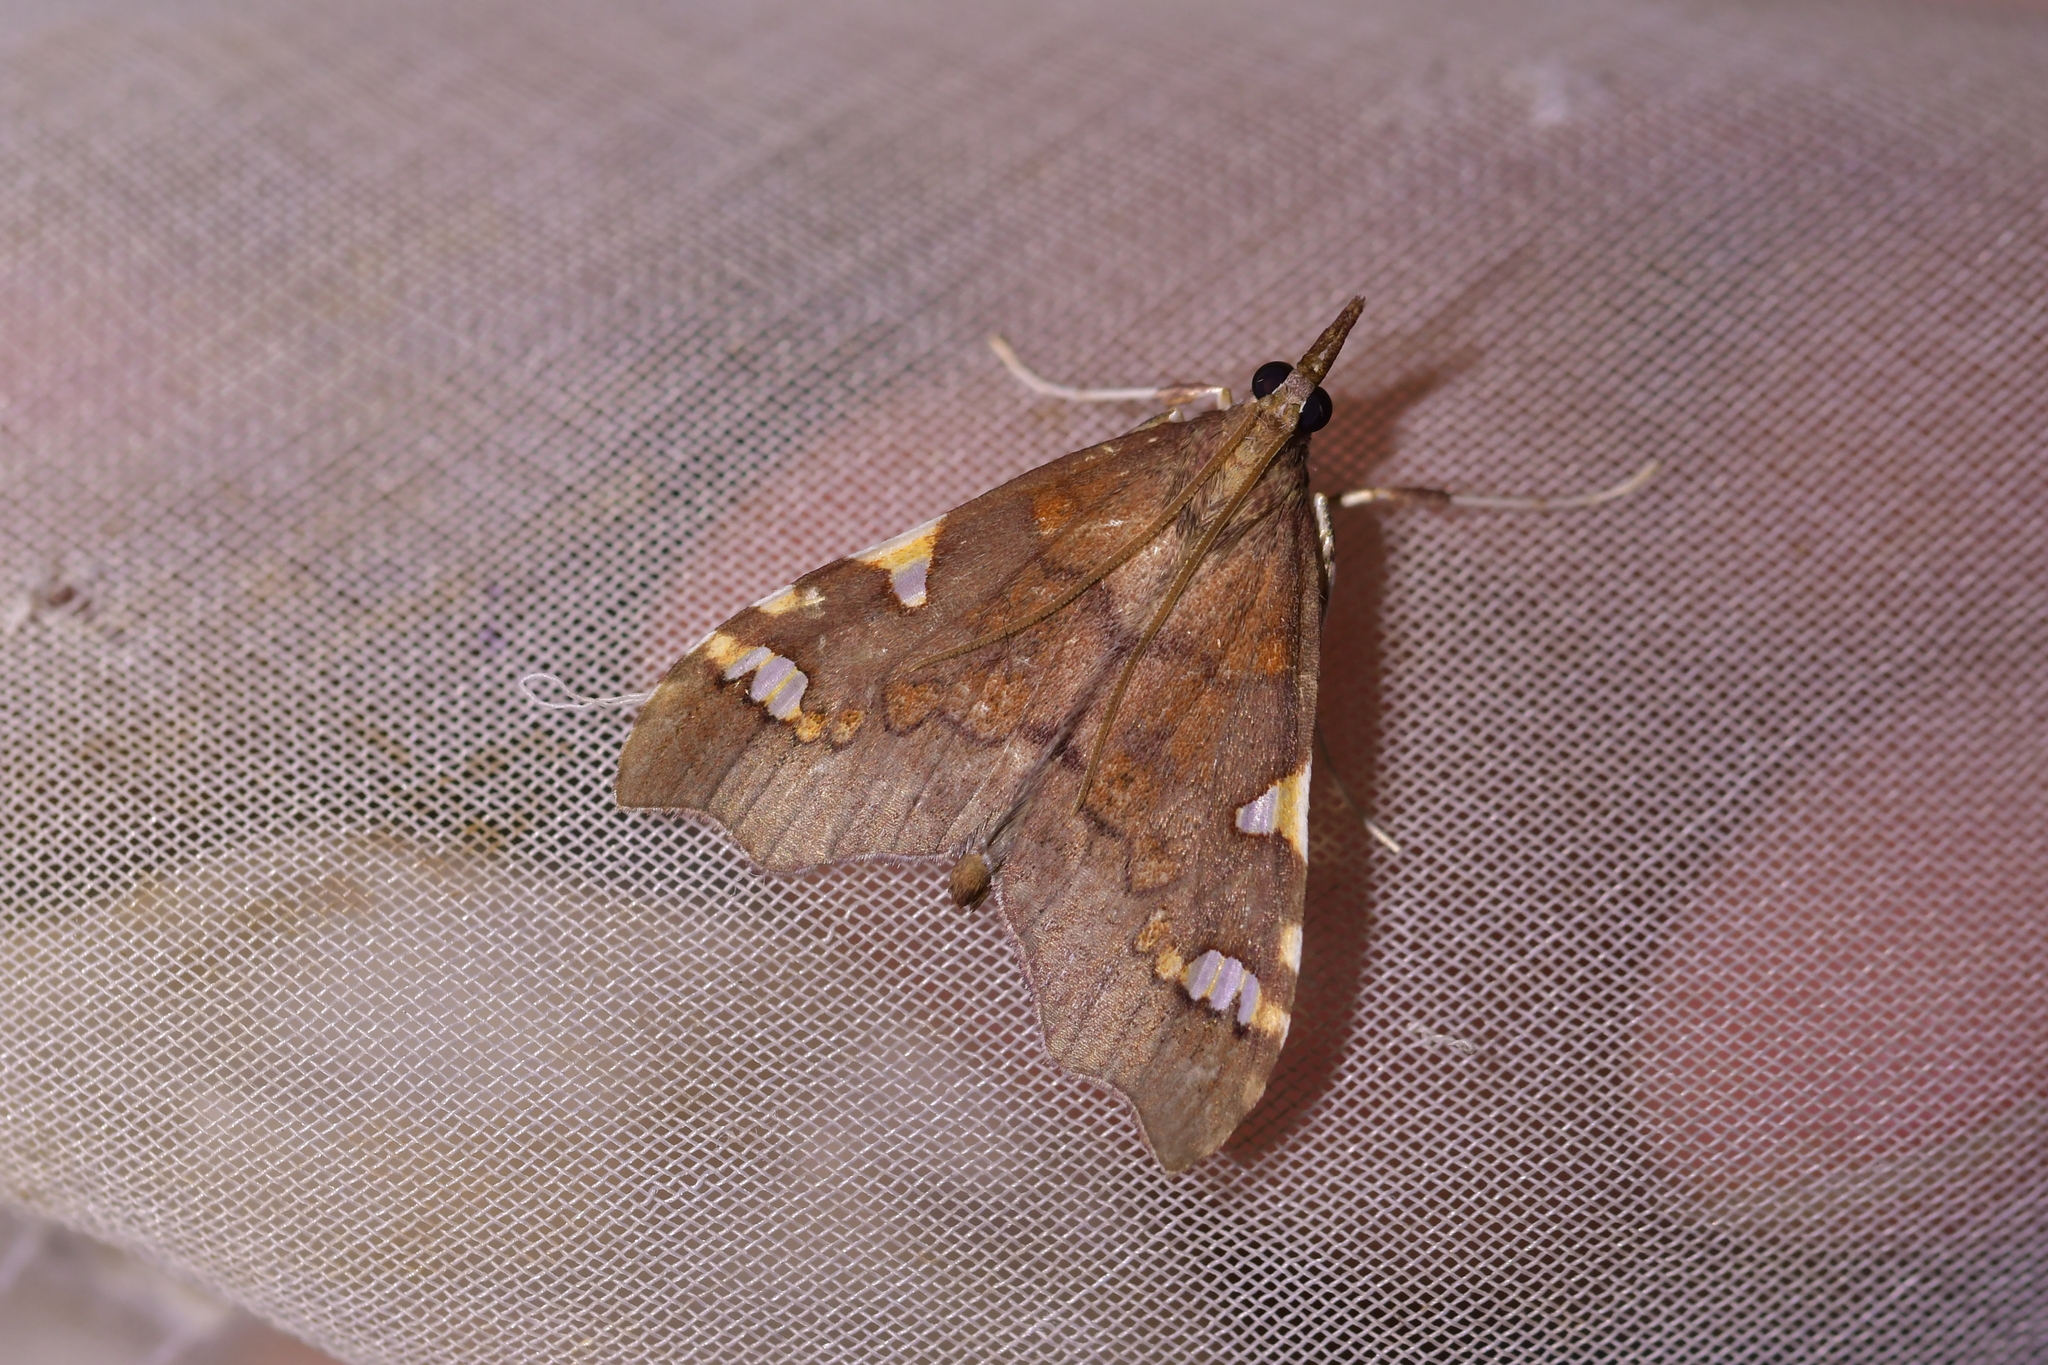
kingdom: Animalia
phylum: Arthropoda
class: Insecta
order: Lepidoptera
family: Crambidae
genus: Deana
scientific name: Deana hybreasalis
